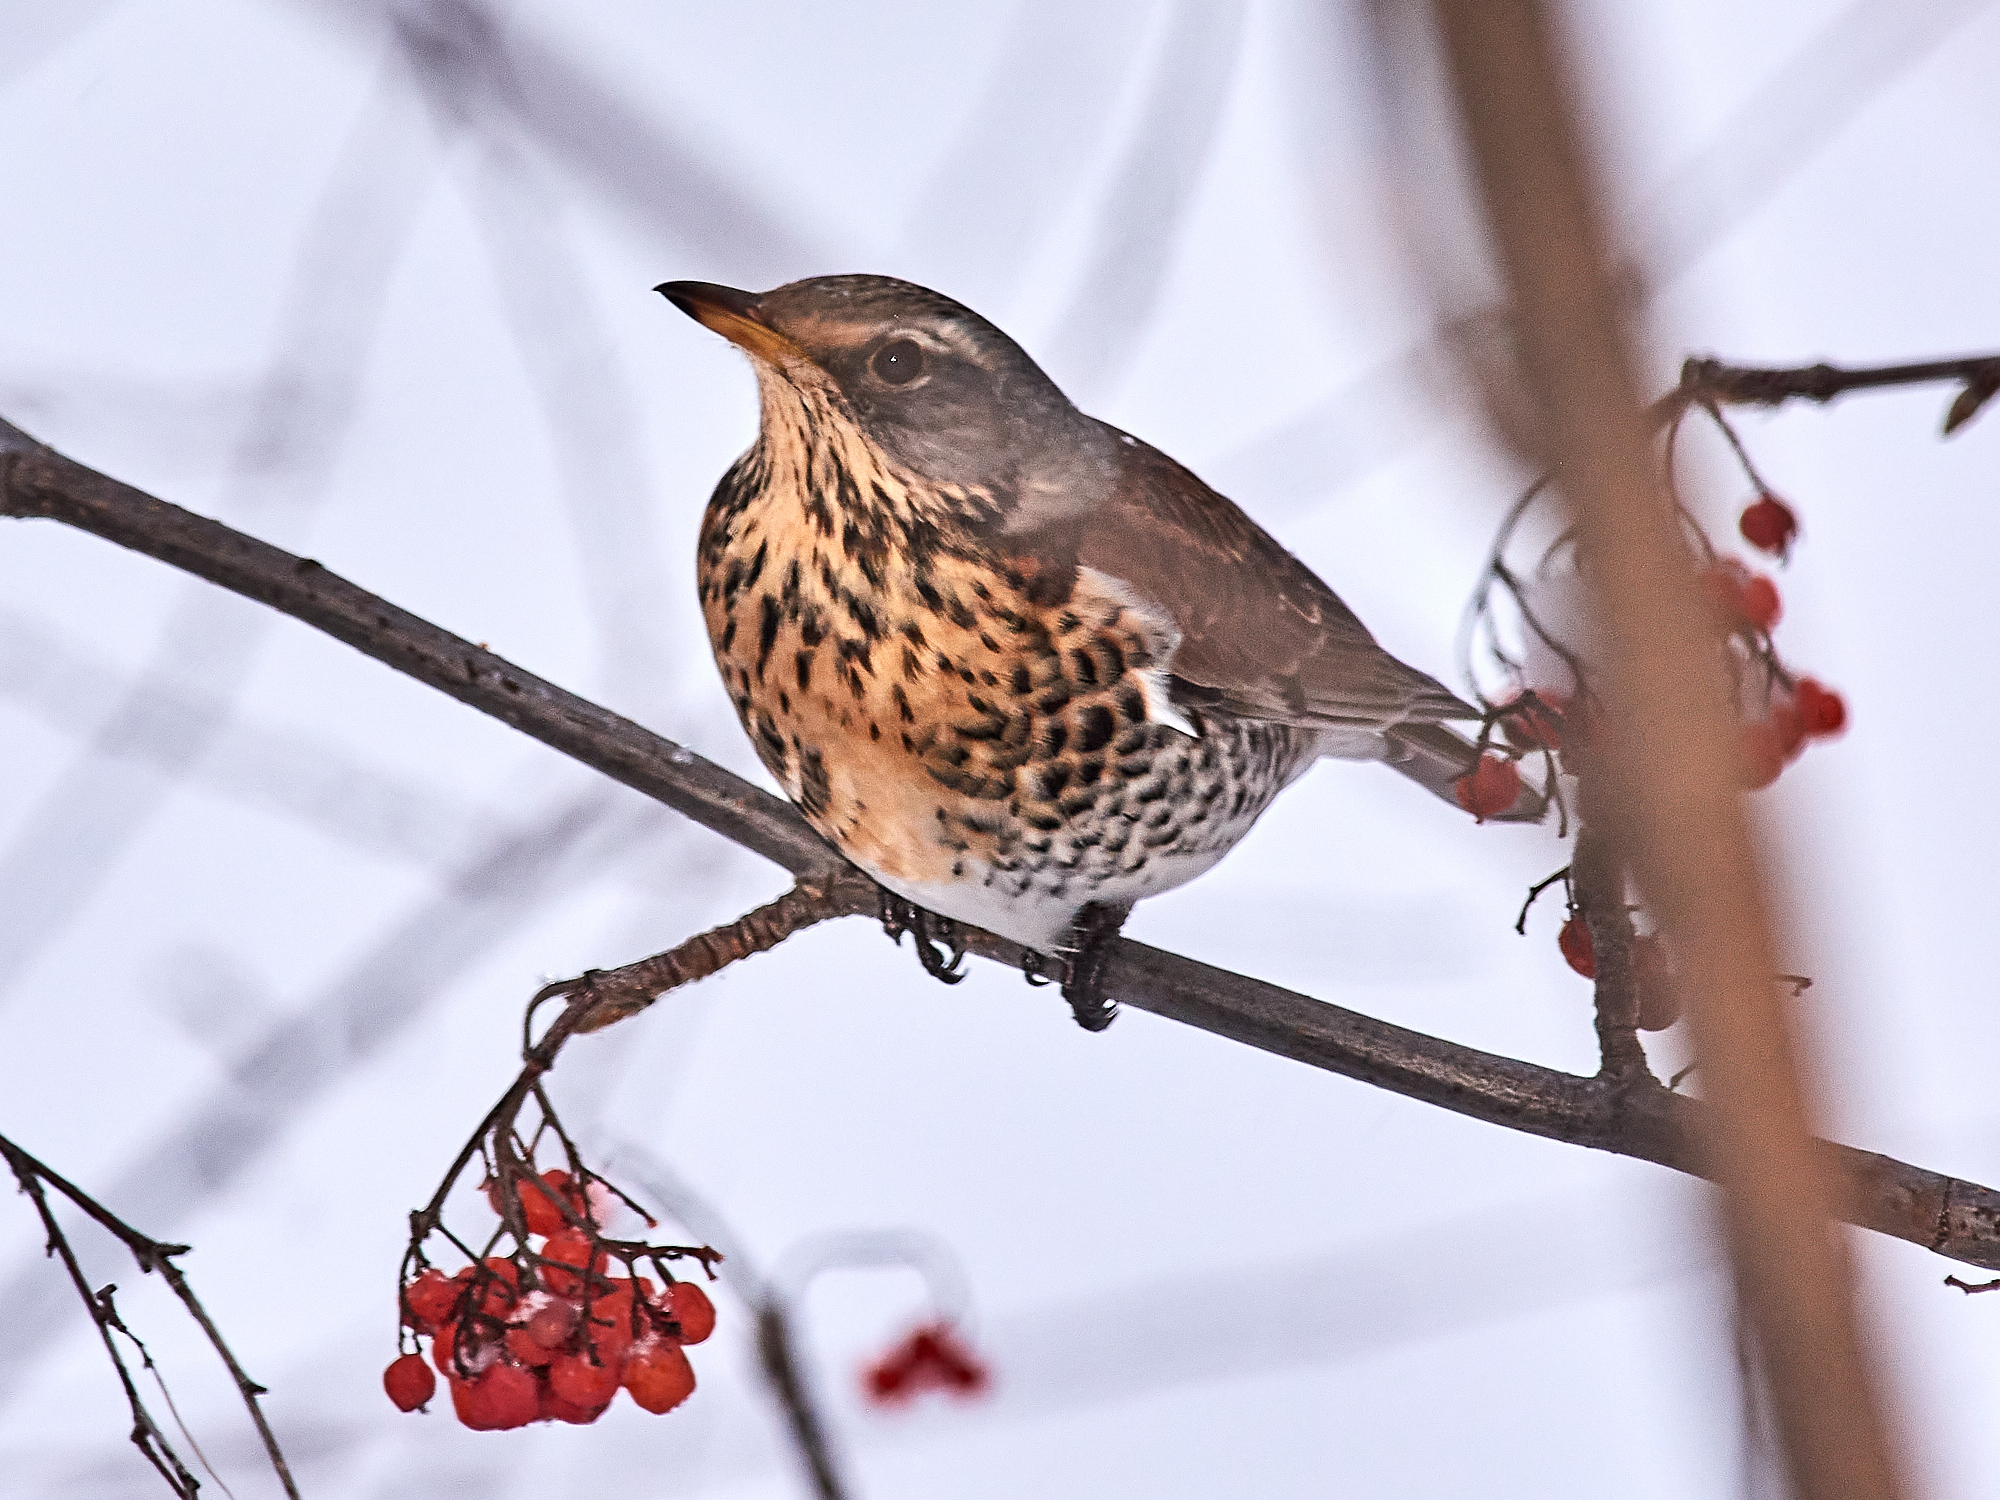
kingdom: Animalia
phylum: Chordata
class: Aves
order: Passeriformes
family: Turdidae
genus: Turdus
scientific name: Turdus pilaris
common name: Fieldfare
